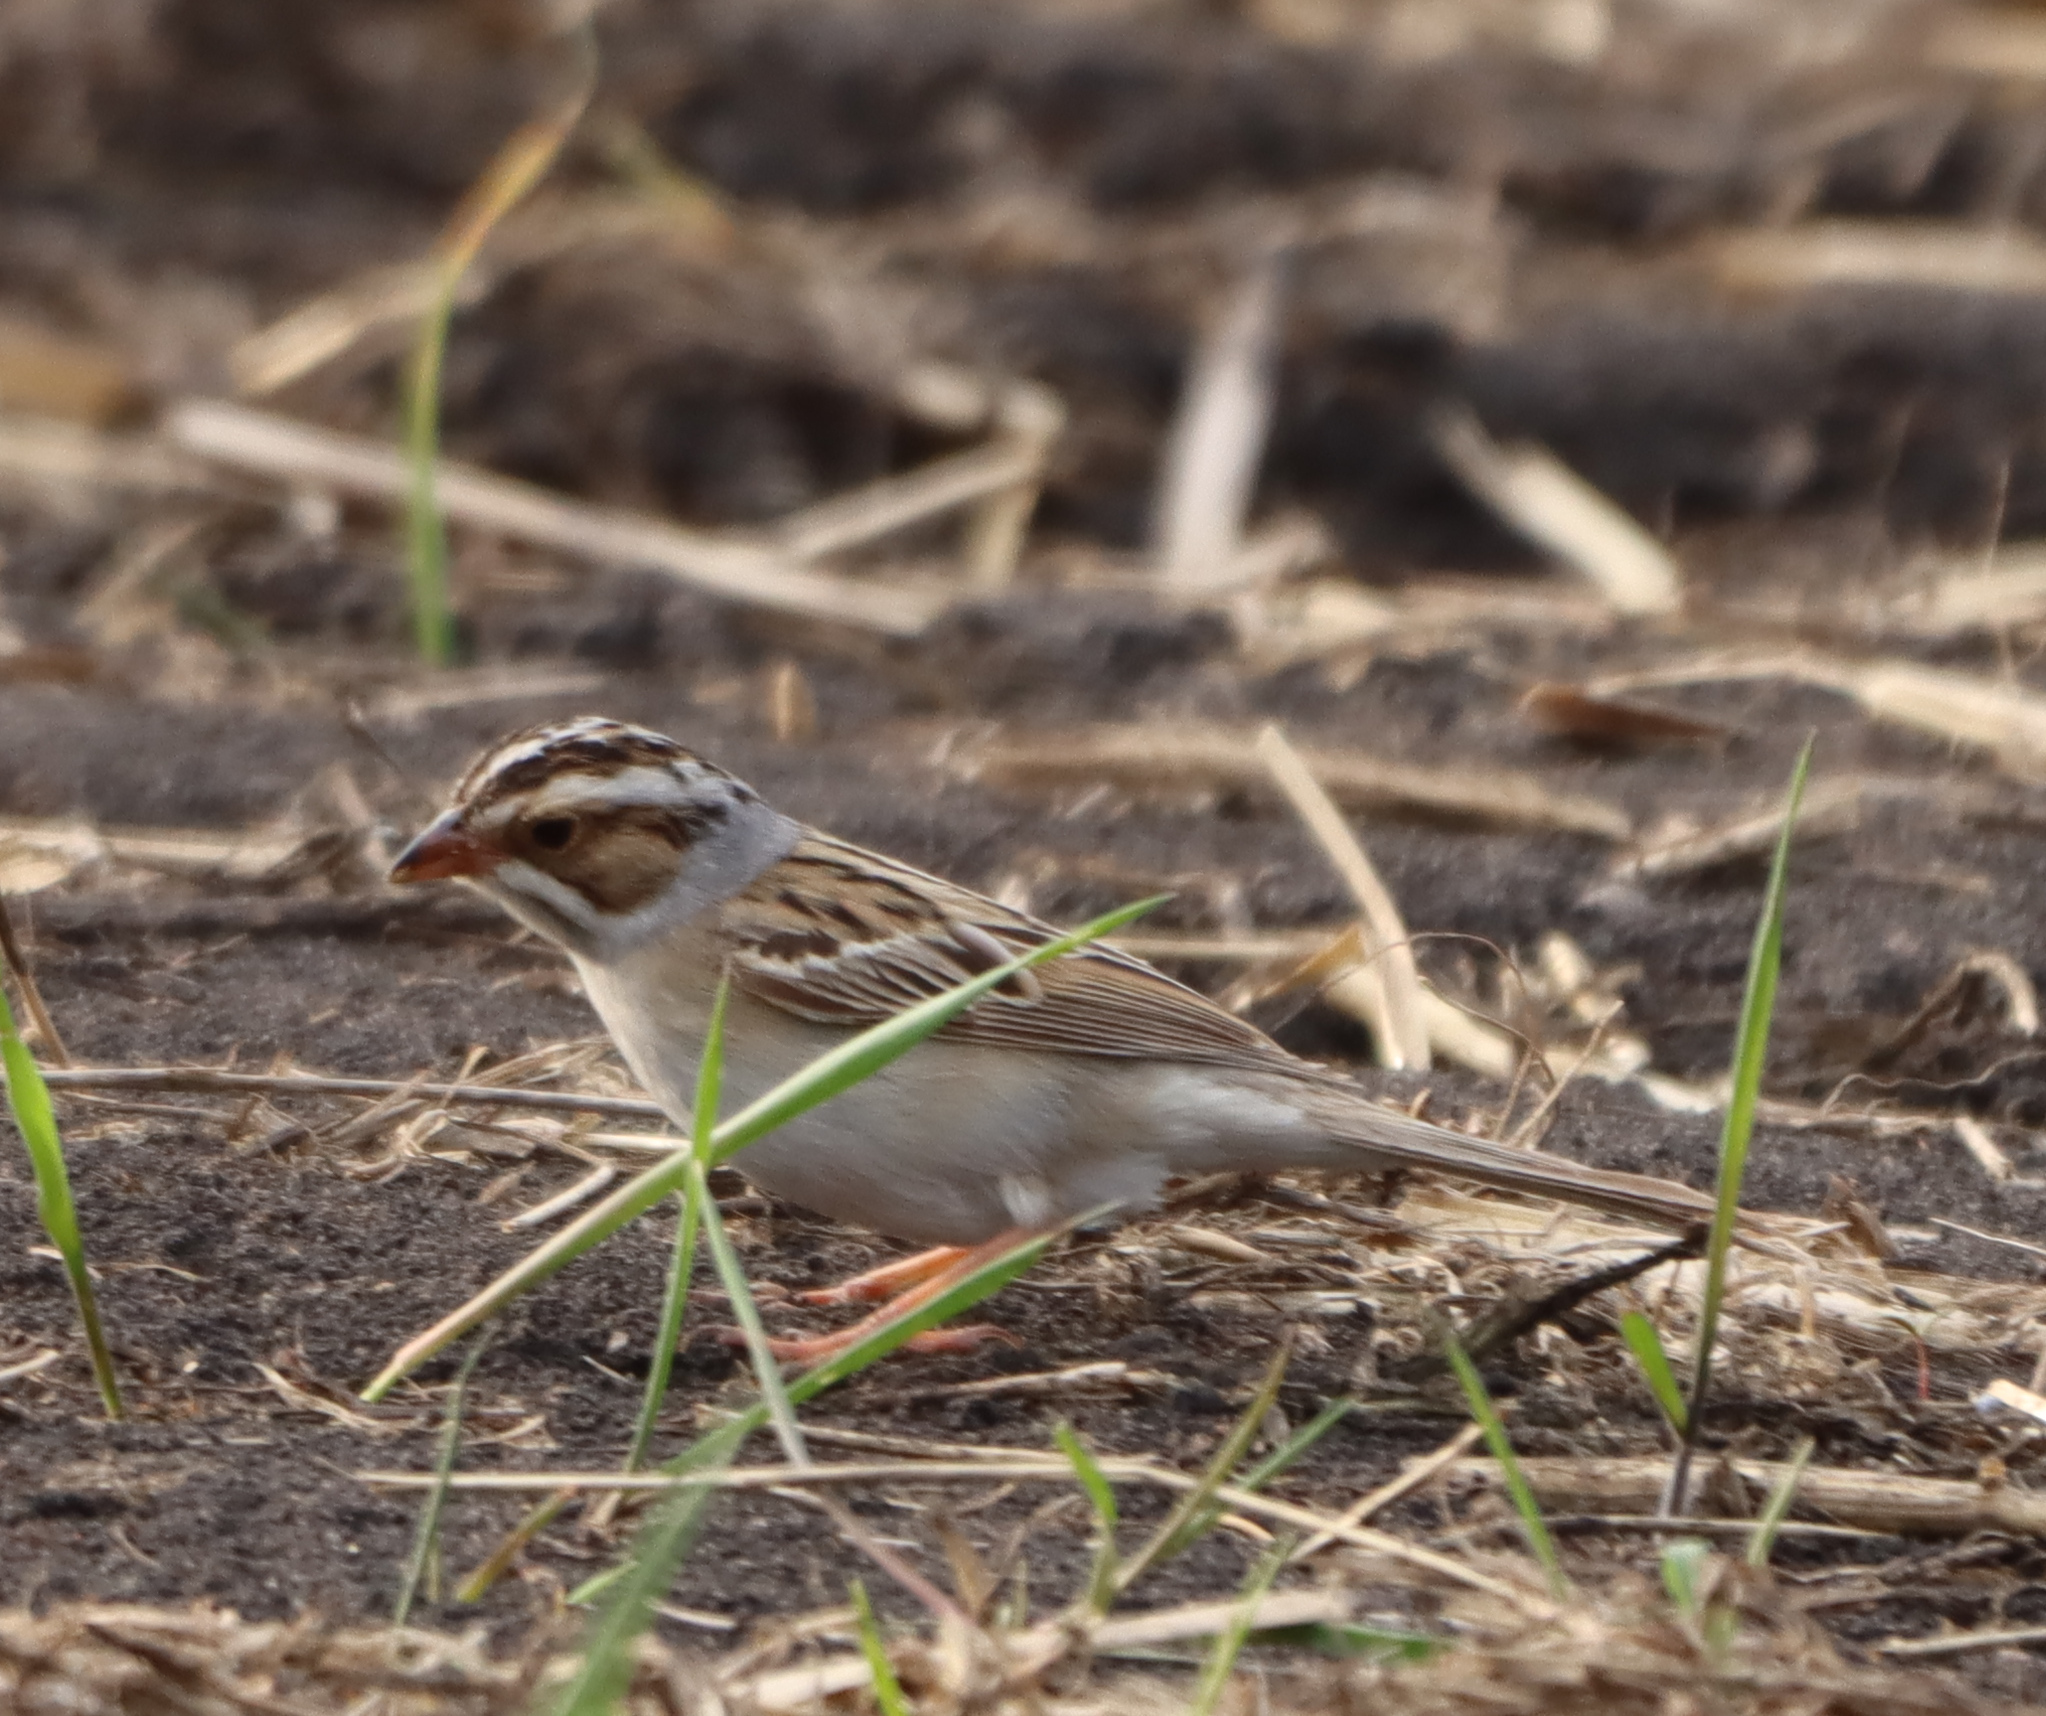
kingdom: Animalia
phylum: Chordata
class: Aves
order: Passeriformes
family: Passerellidae
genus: Spizella
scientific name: Spizella pallida
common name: Clay-colored sparrow
